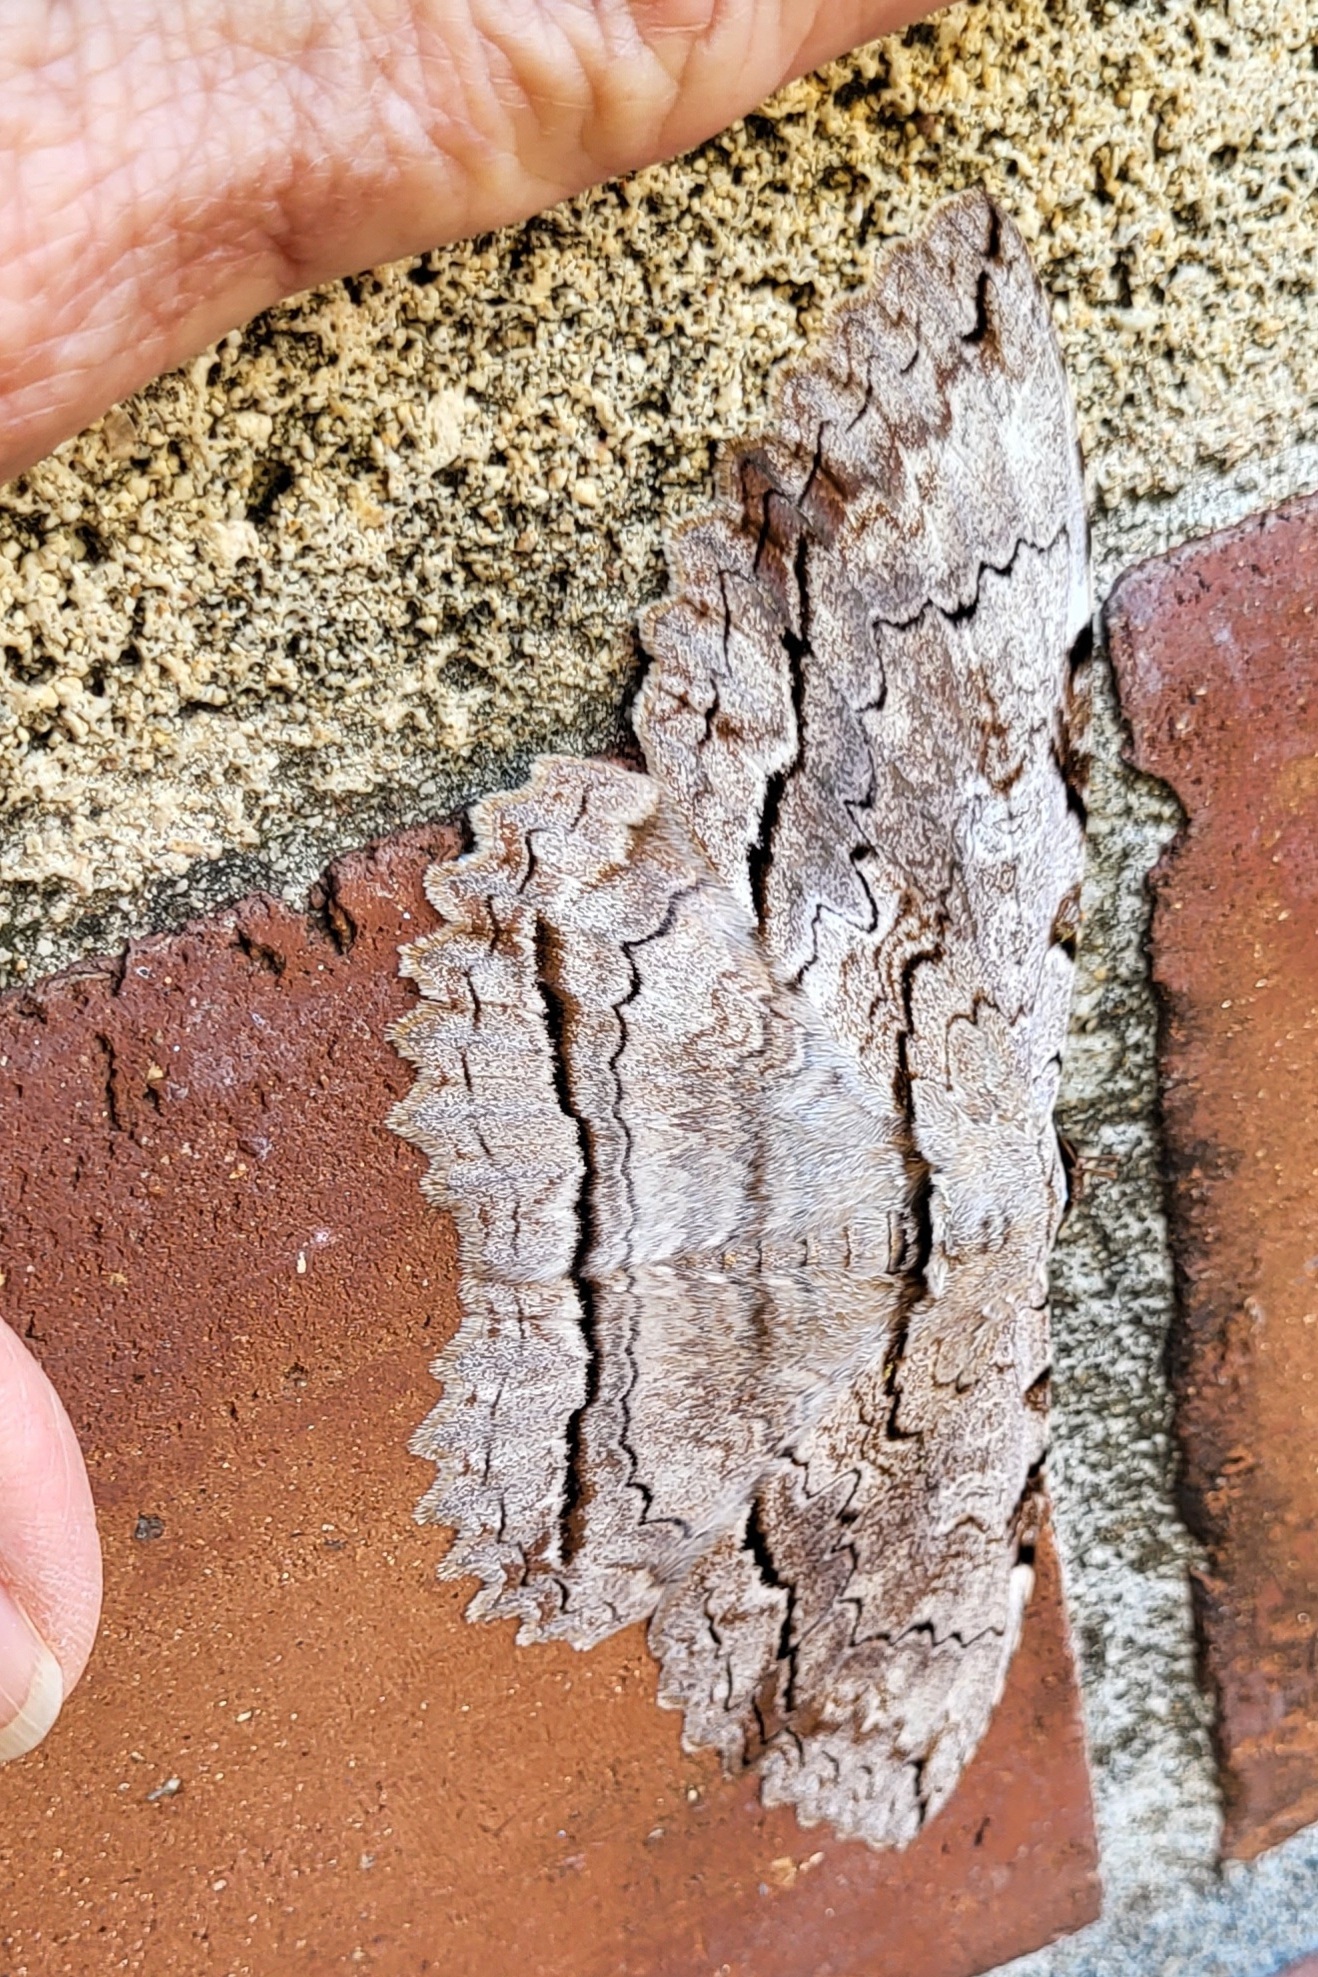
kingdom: Animalia
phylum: Arthropoda
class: Insecta
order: Lepidoptera
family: Erebidae
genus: Thysania
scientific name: Thysania zenobia
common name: Owl moth
